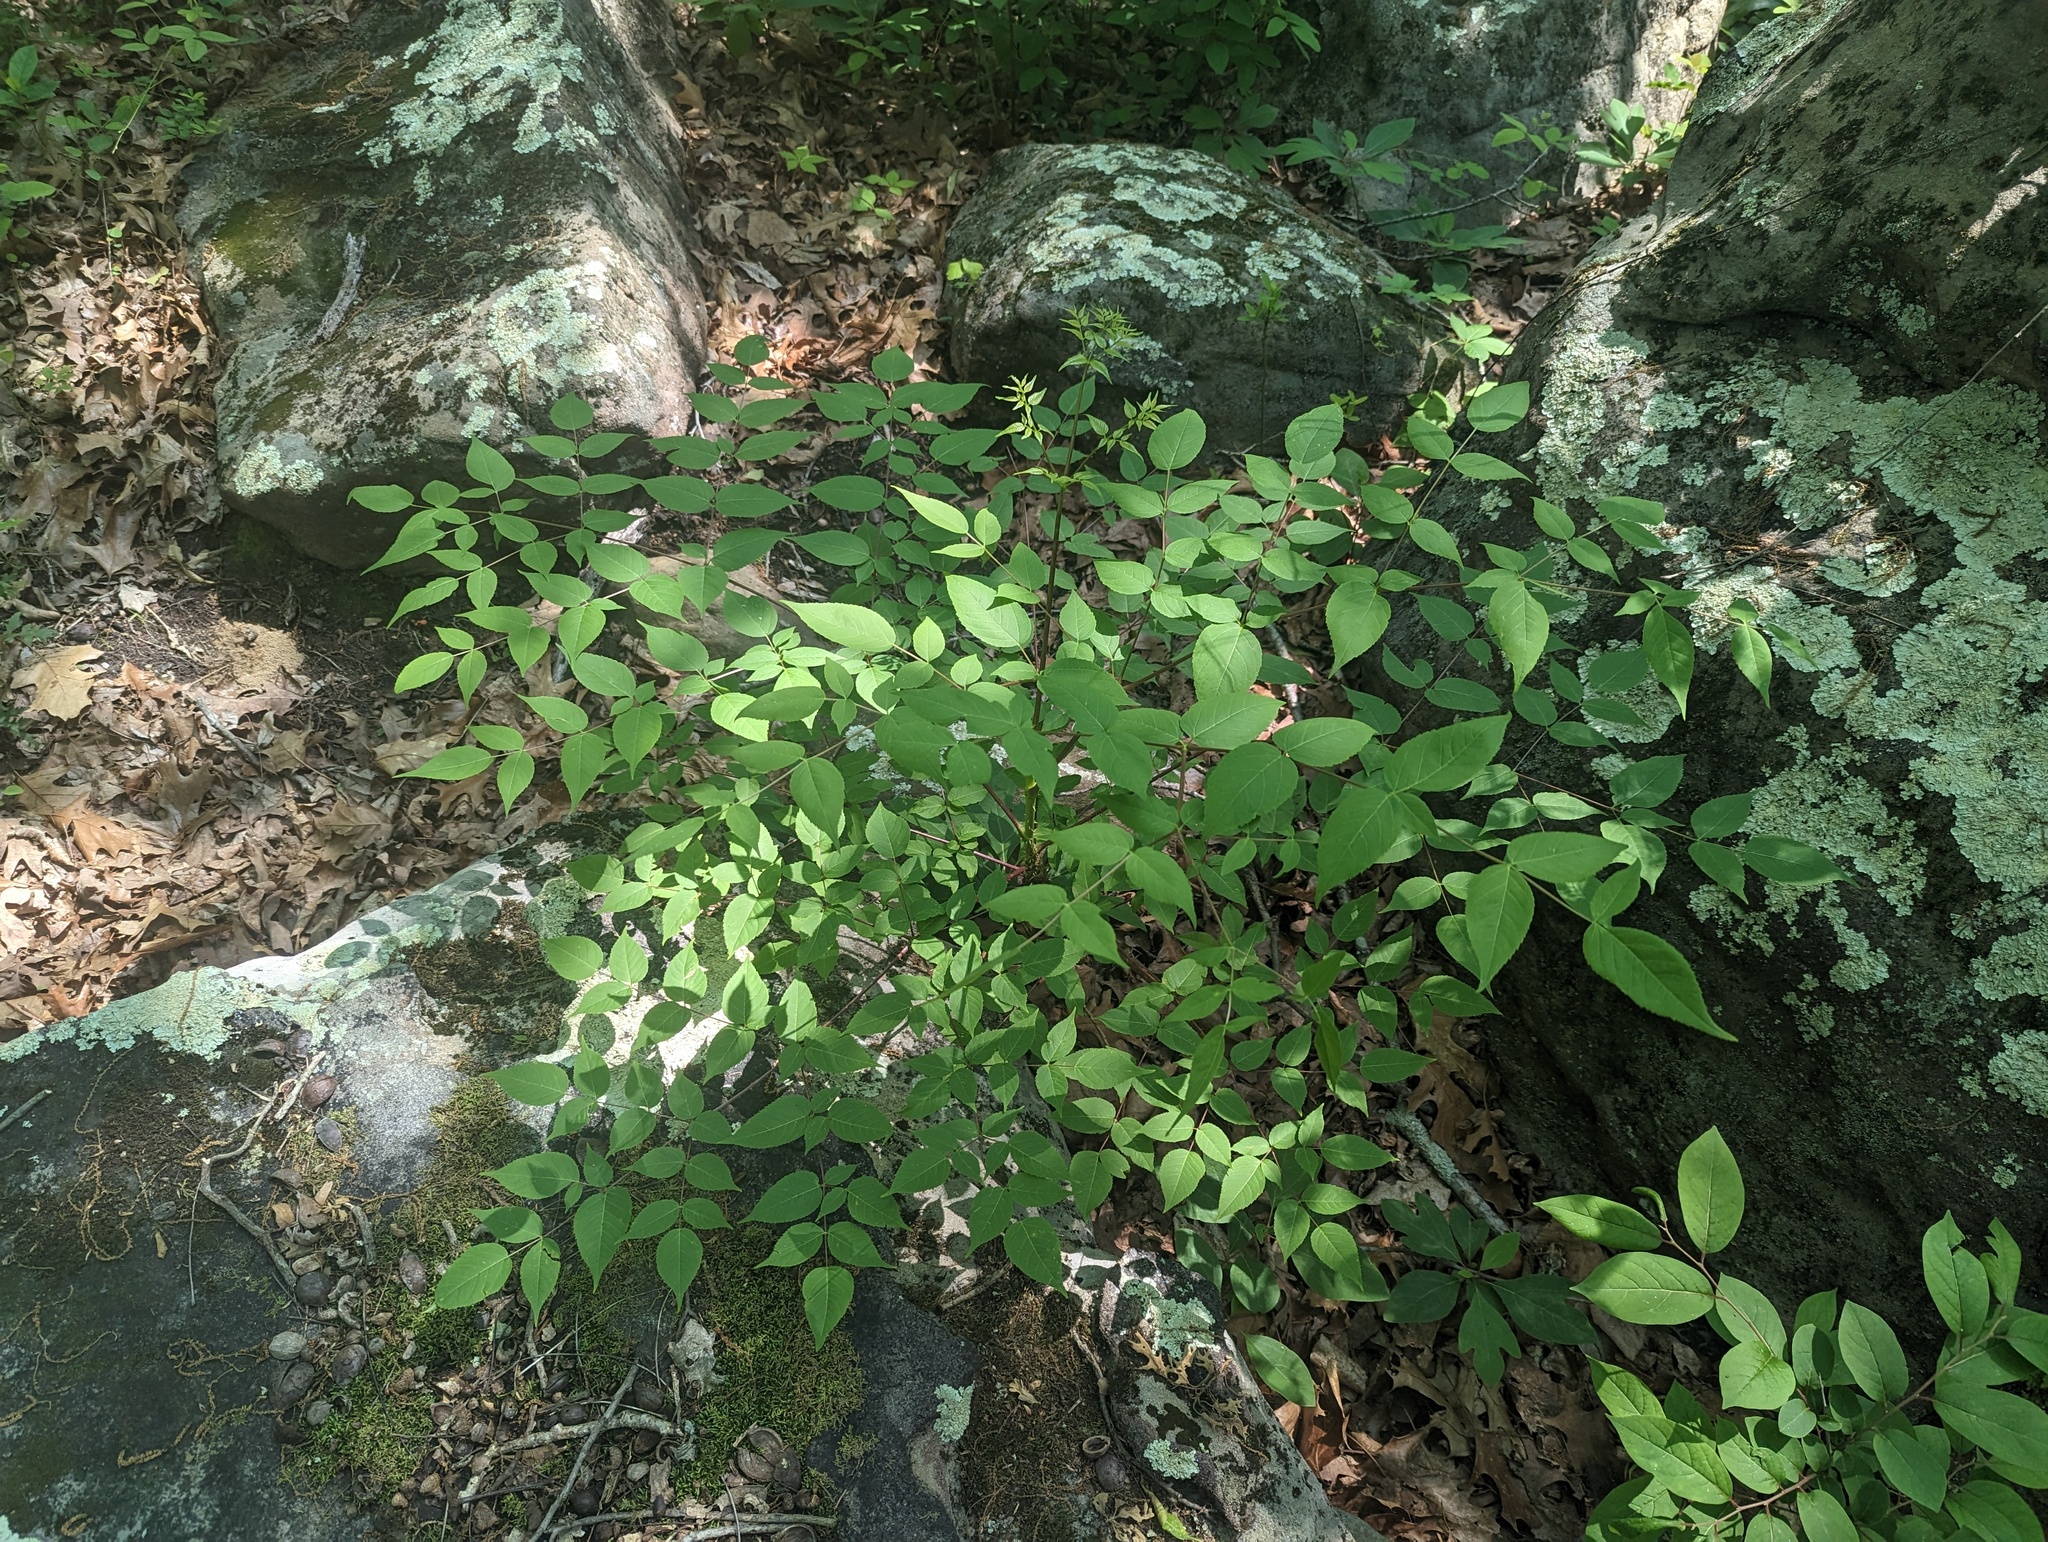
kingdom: Plantae
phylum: Tracheophyta
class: Magnoliopsida
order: Apiales
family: Araliaceae
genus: Aralia
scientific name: Aralia spinosa
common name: Hercules'-club
